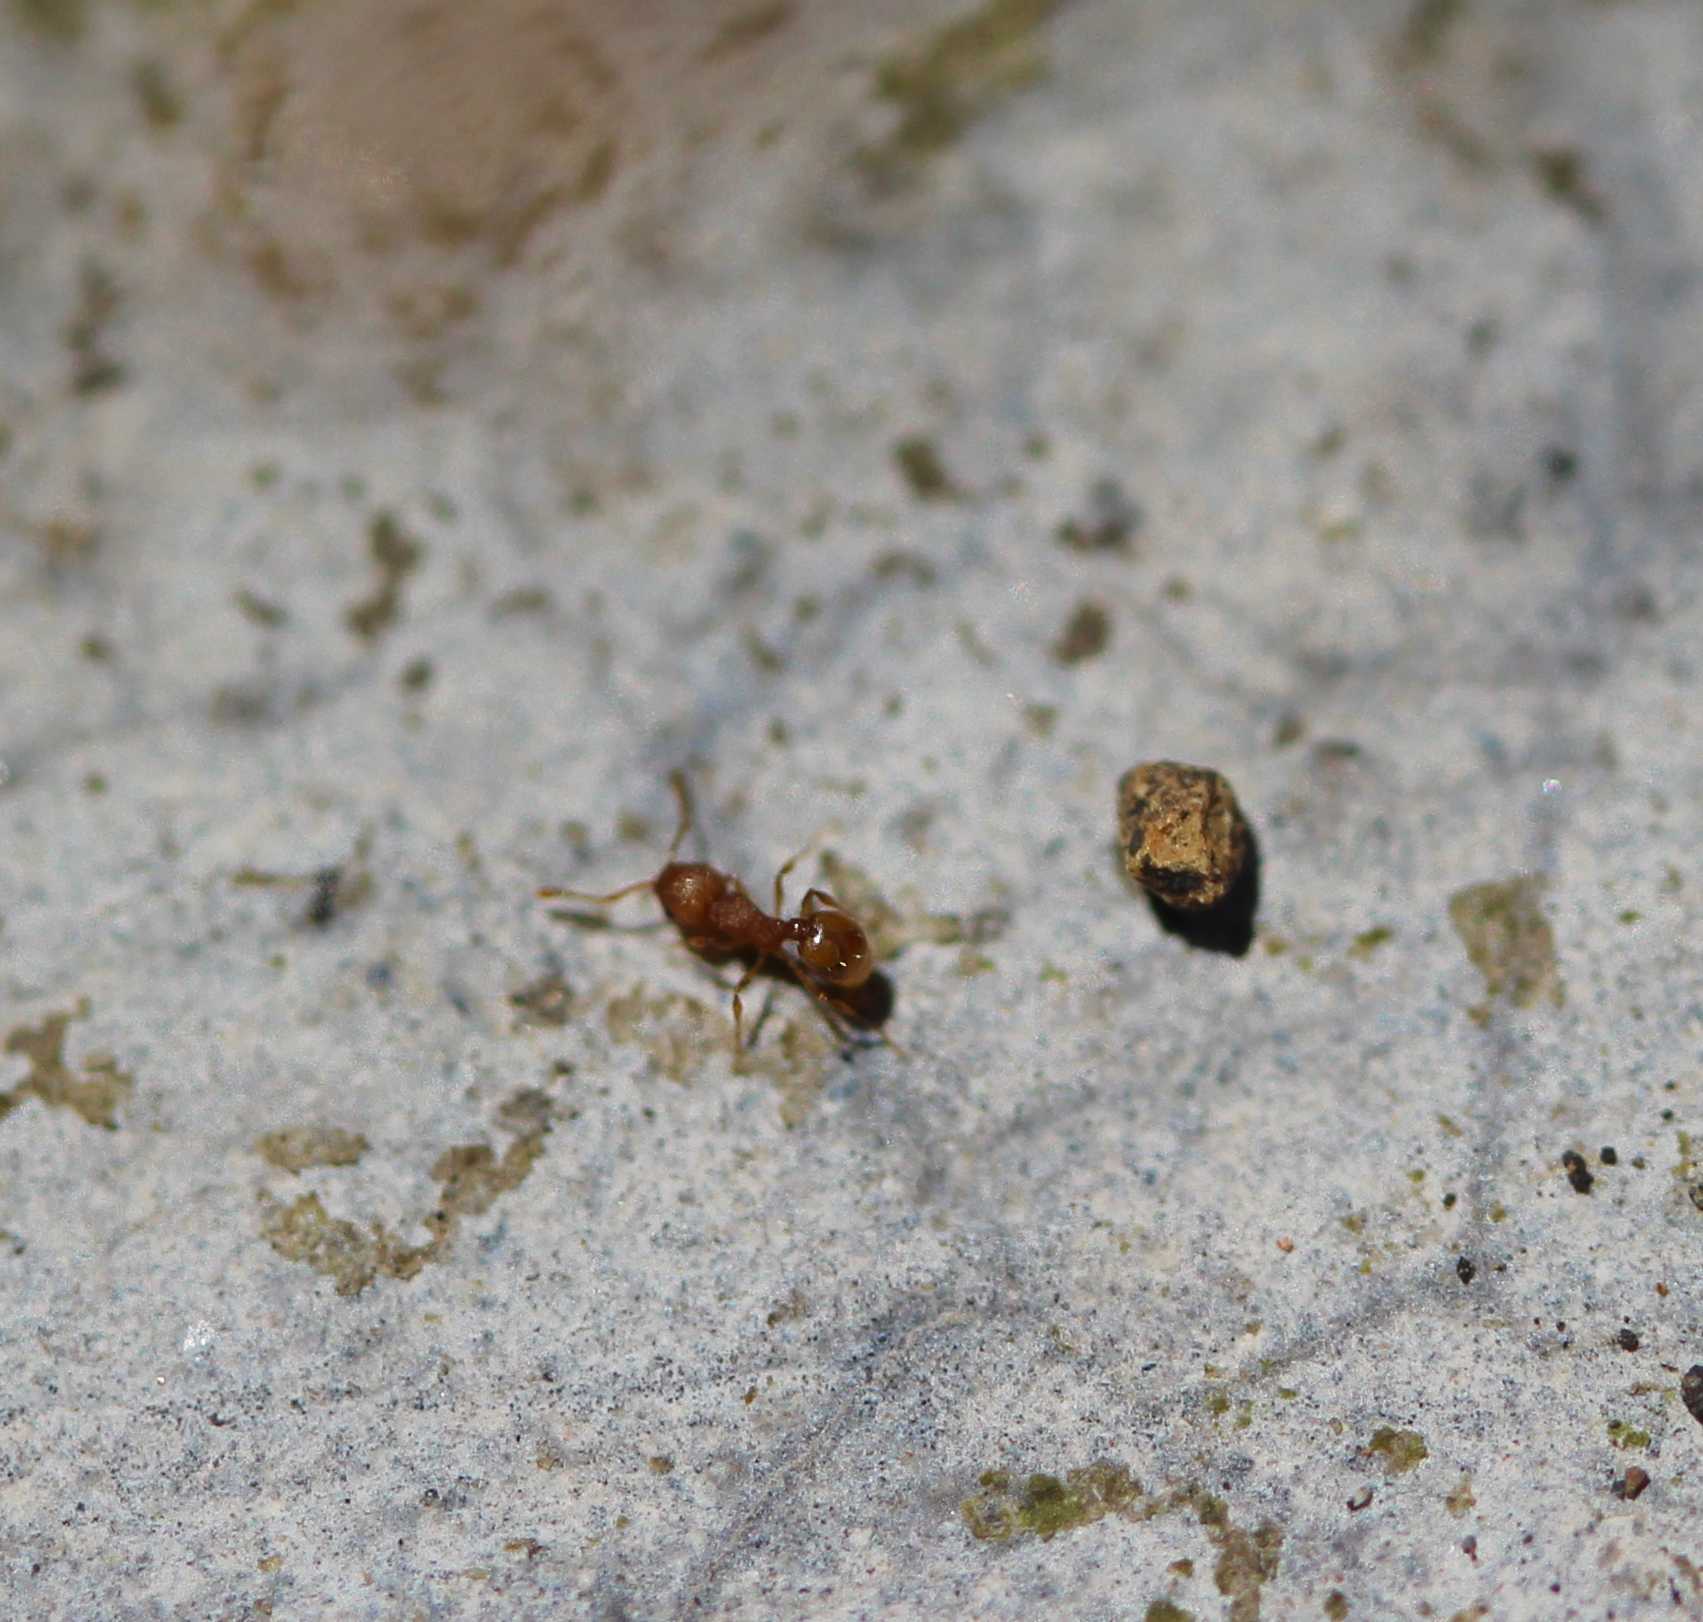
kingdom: Animalia
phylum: Arthropoda
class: Insecta
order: Hymenoptera
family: Formicidae
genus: Wasmannia
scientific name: Wasmannia auropunctata
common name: Little fire ant
